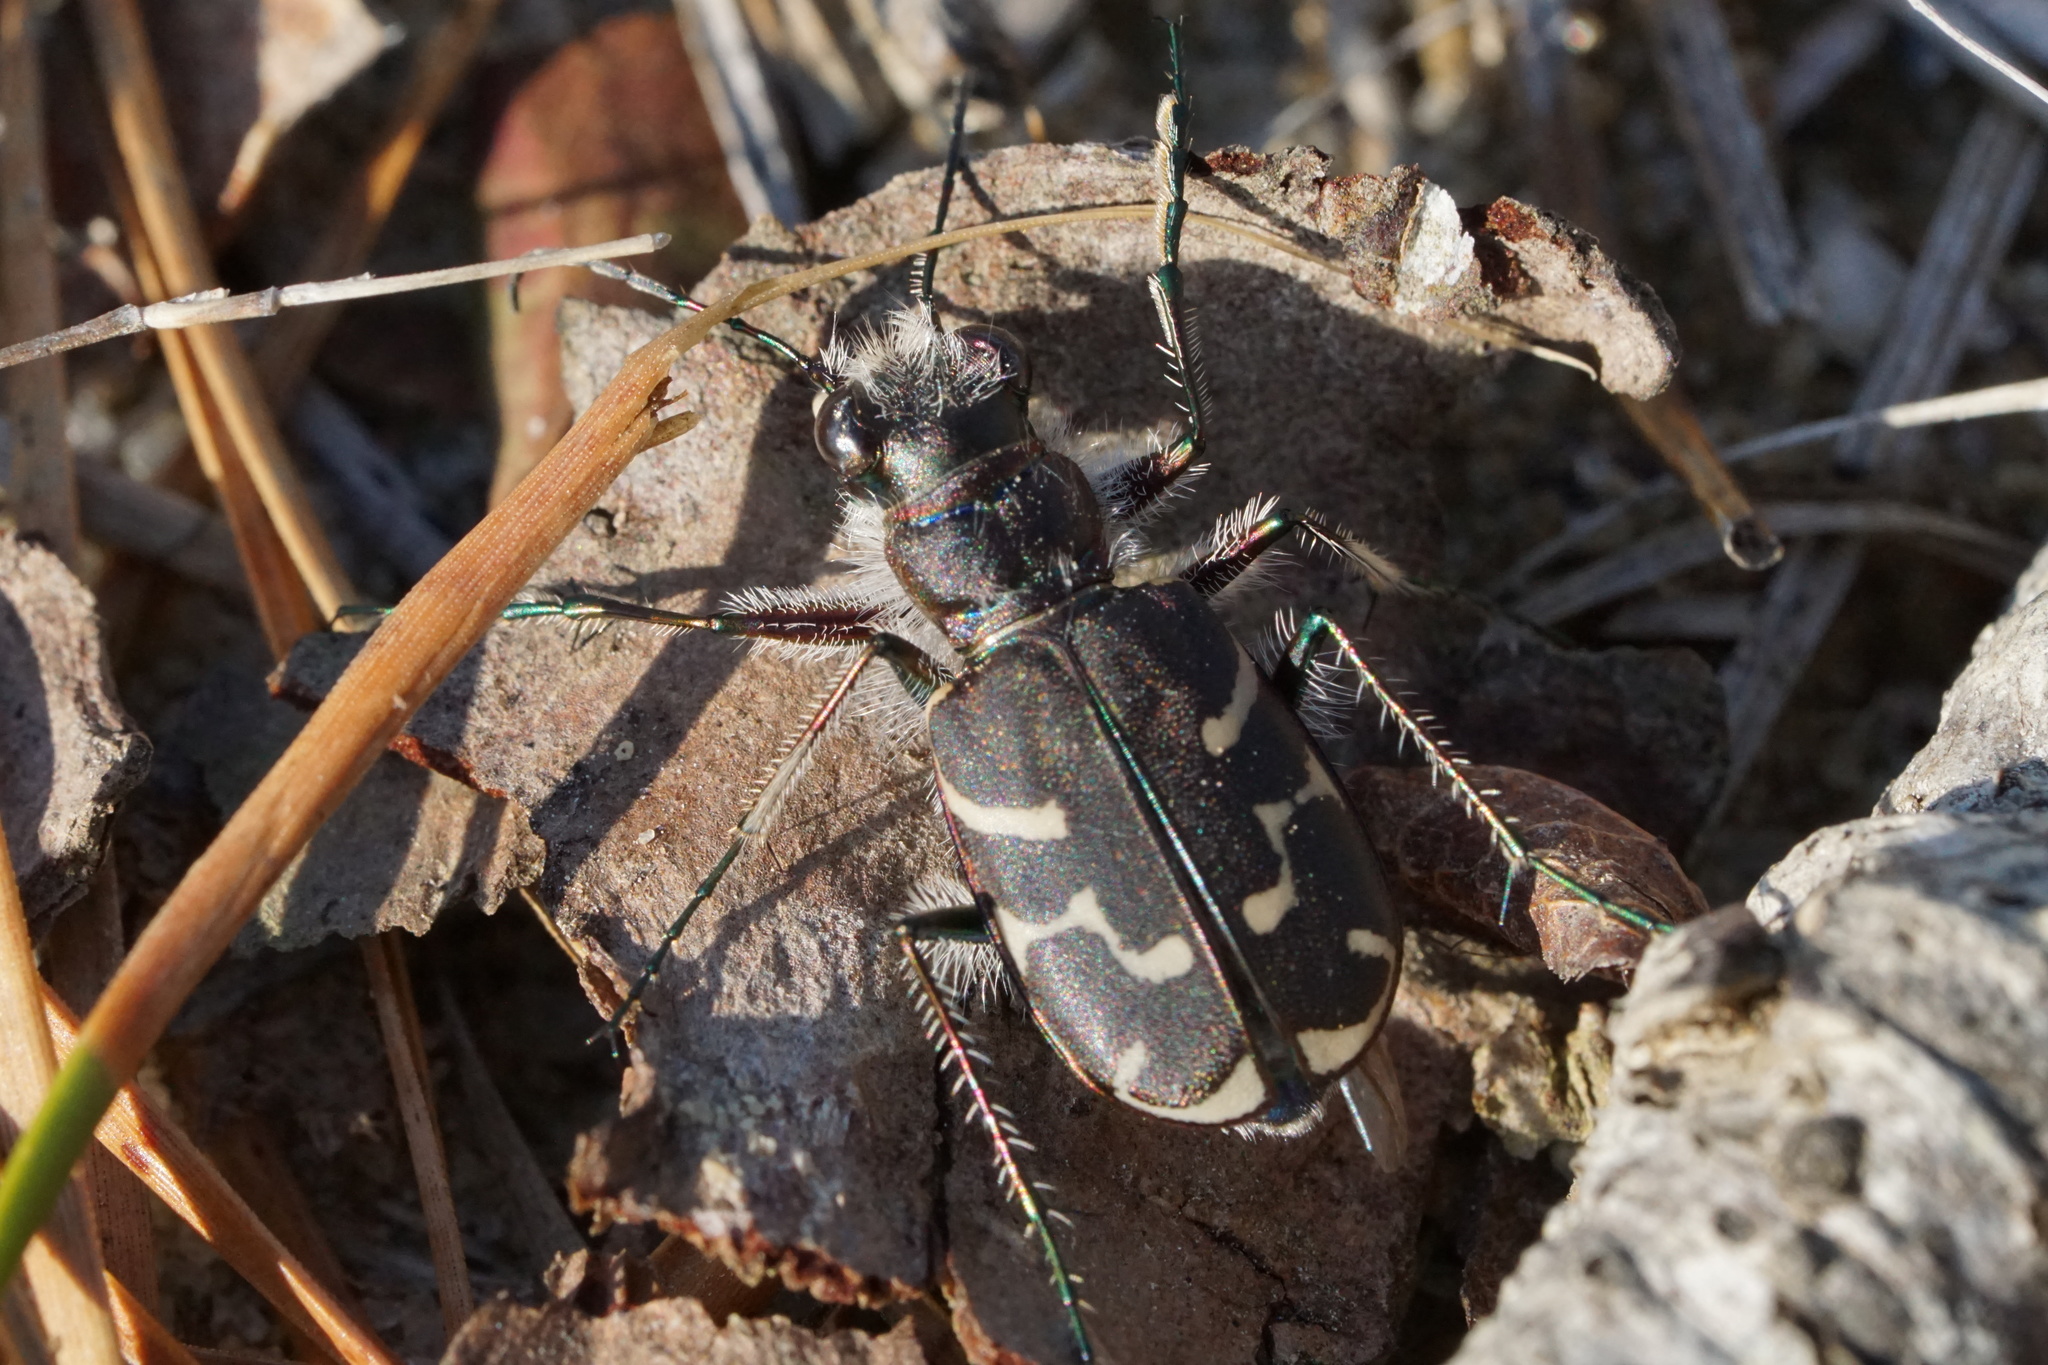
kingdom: Animalia
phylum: Arthropoda
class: Insecta
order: Coleoptera
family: Carabidae
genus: Cicindela
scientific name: Cicindela tranquebarica
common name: Oblique-lined tiger beetle
